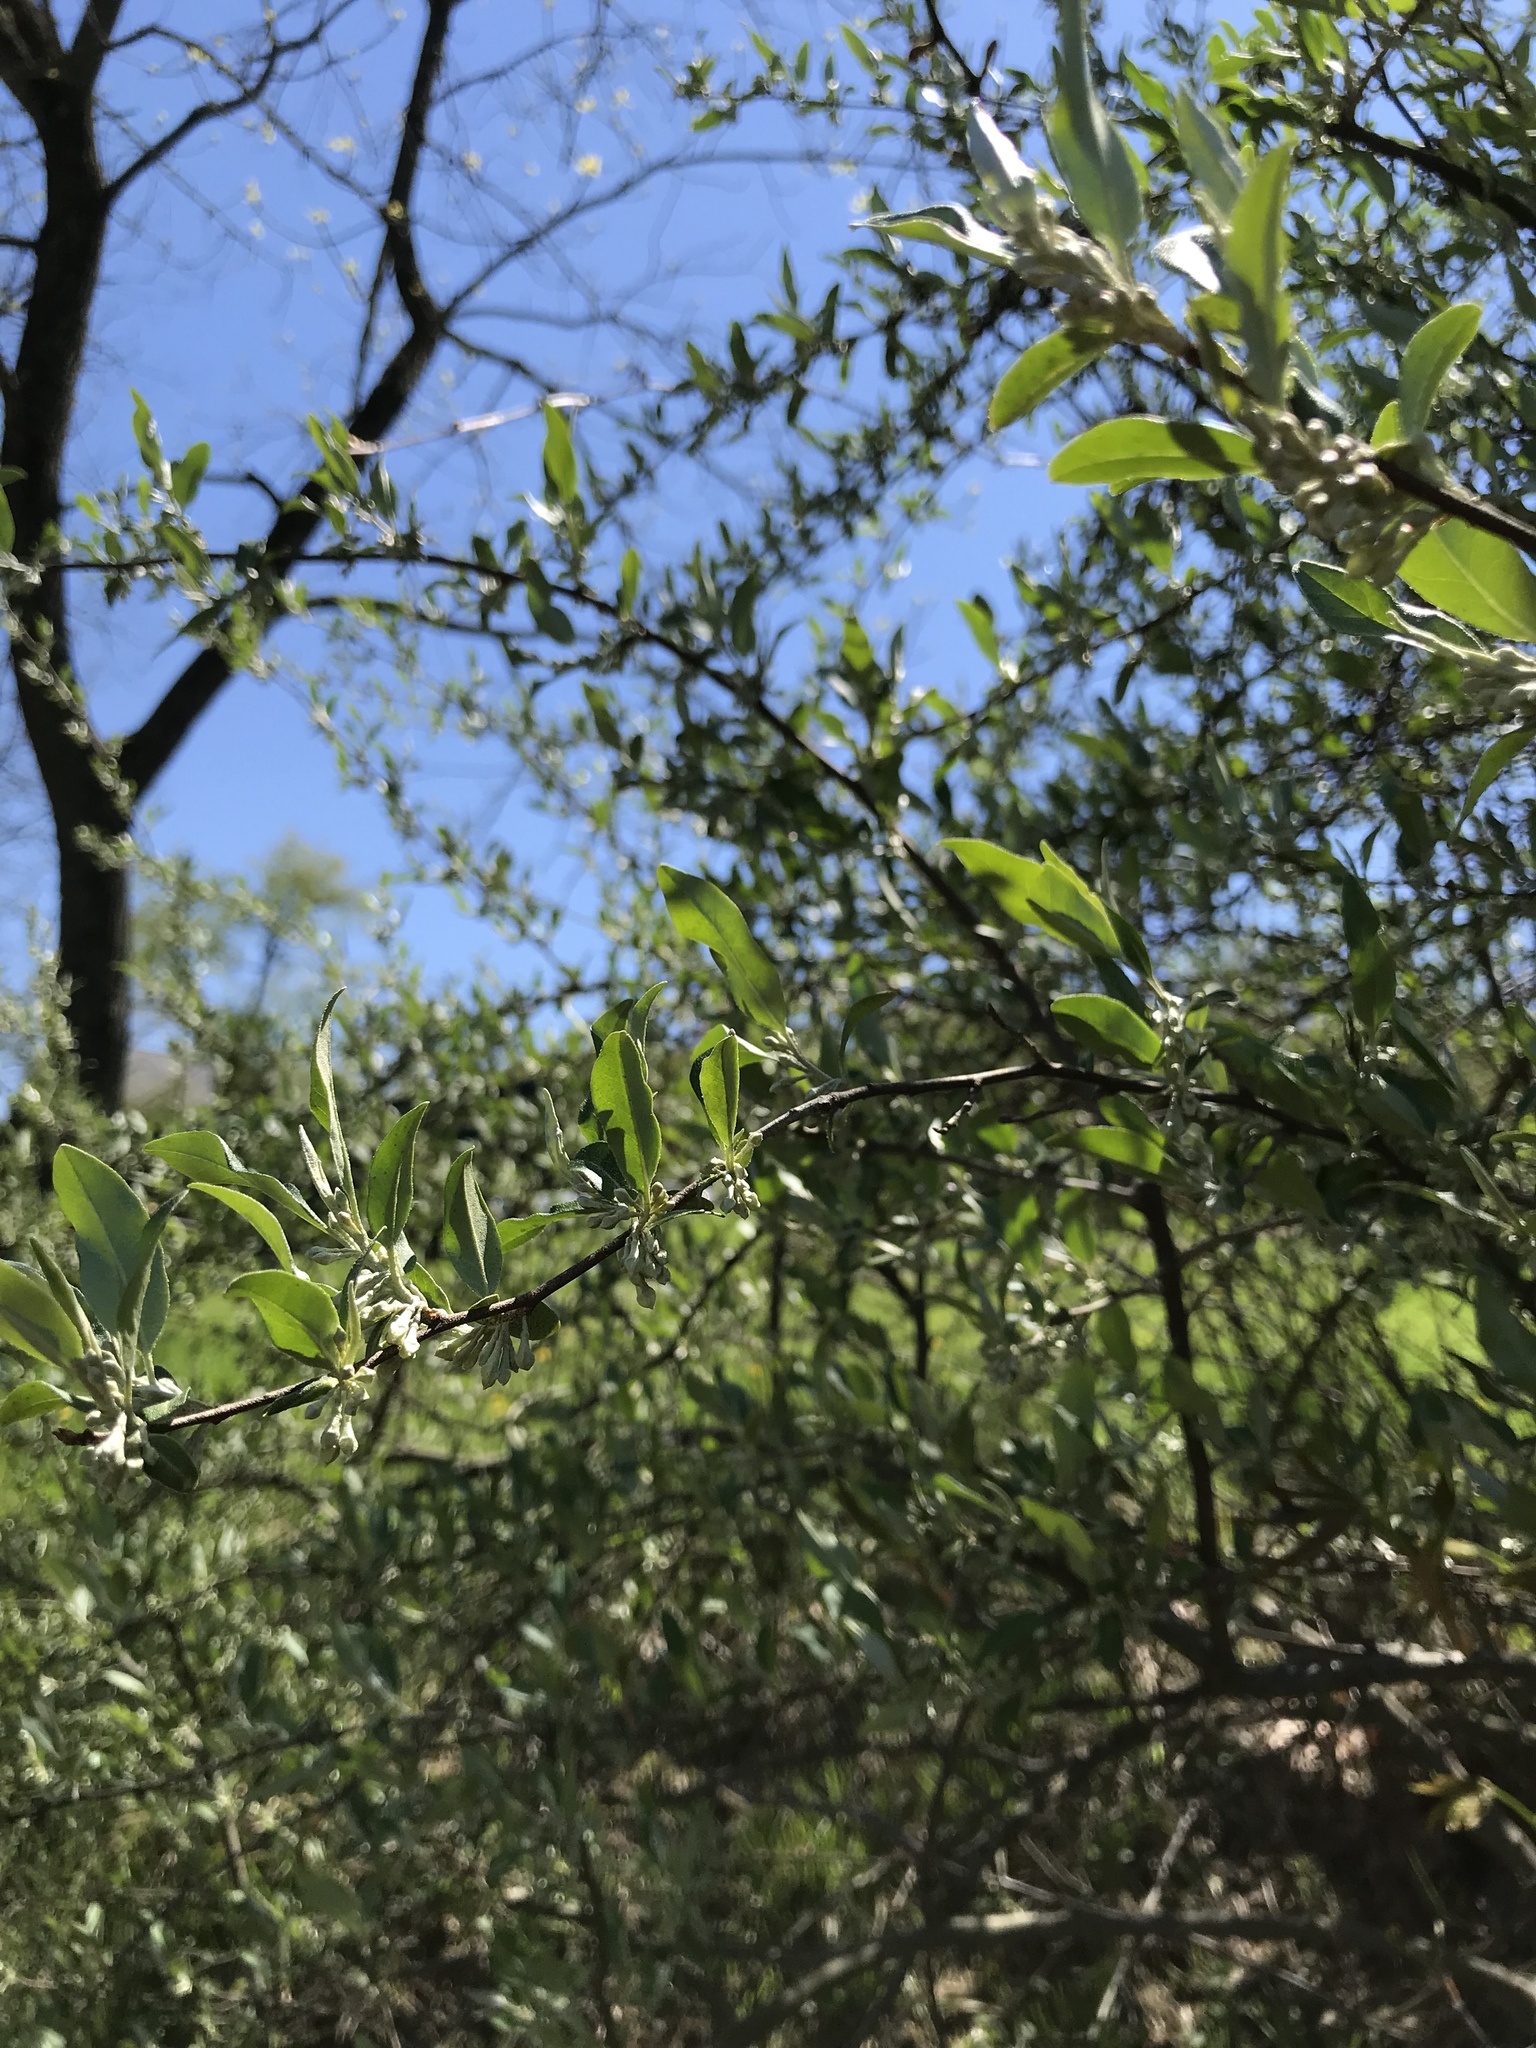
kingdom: Plantae
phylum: Tracheophyta
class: Magnoliopsida
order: Rosales
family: Elaeagnaceae
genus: Elaeagnus
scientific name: Elaeagnus umbellata
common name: Autumn olive
